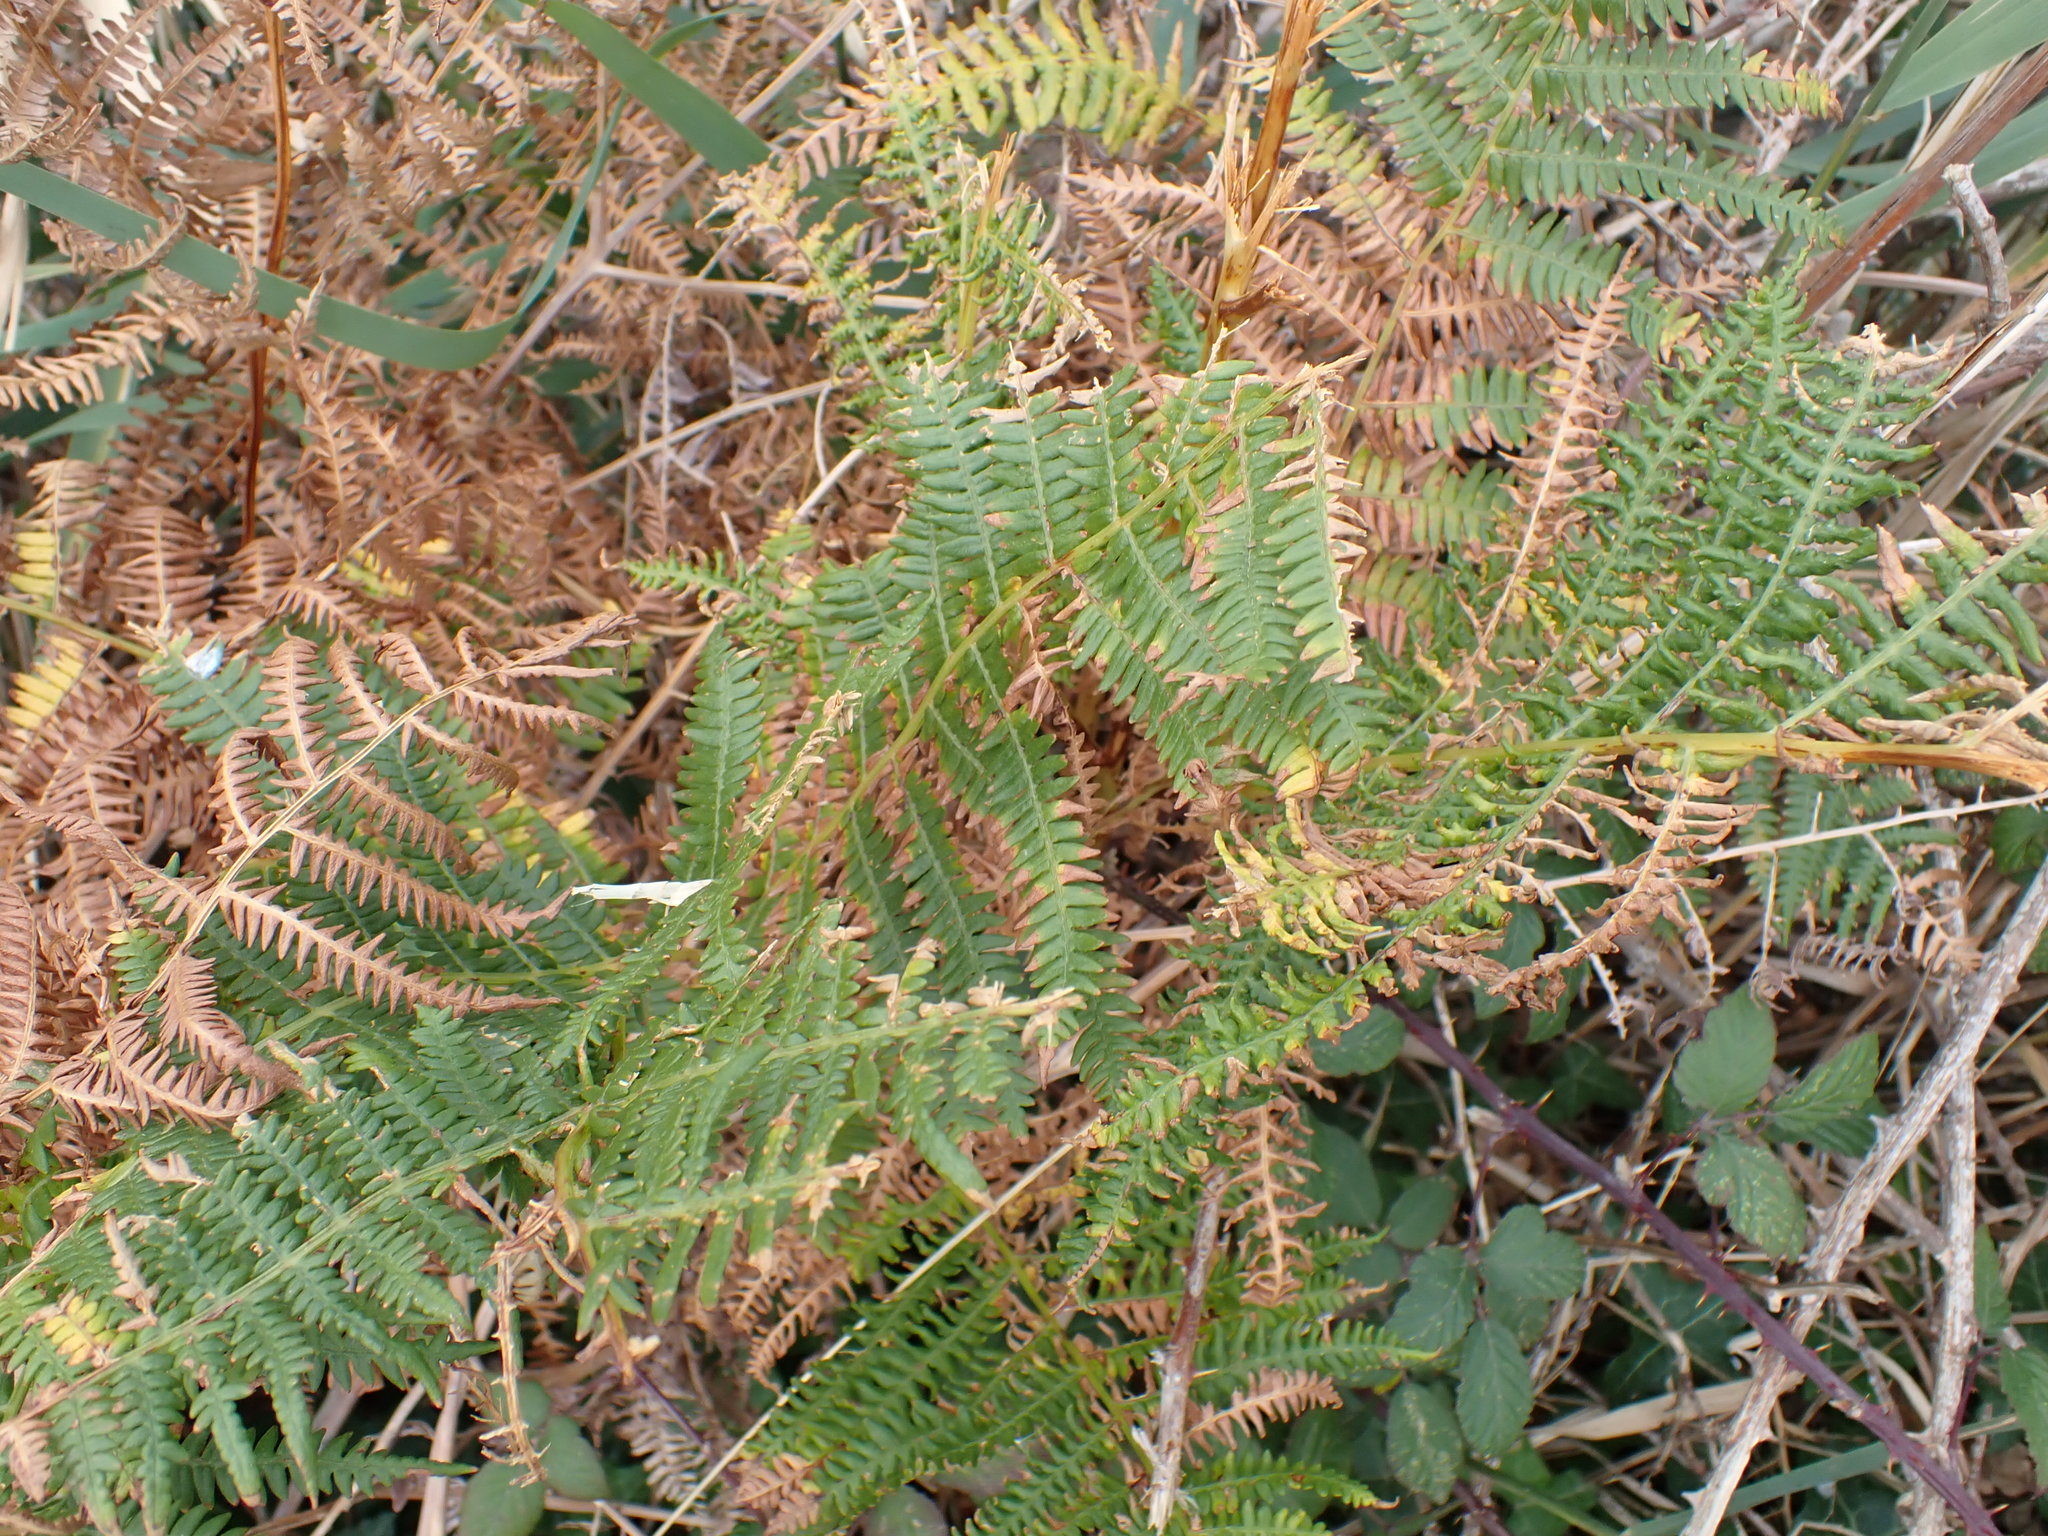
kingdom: Plantae
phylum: Tracheophyta
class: Polypodiopsida
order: Polypodiales
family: Dennstaedtiaceae
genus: Pteridium
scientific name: Pteridium aquilinum
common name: Bracken
